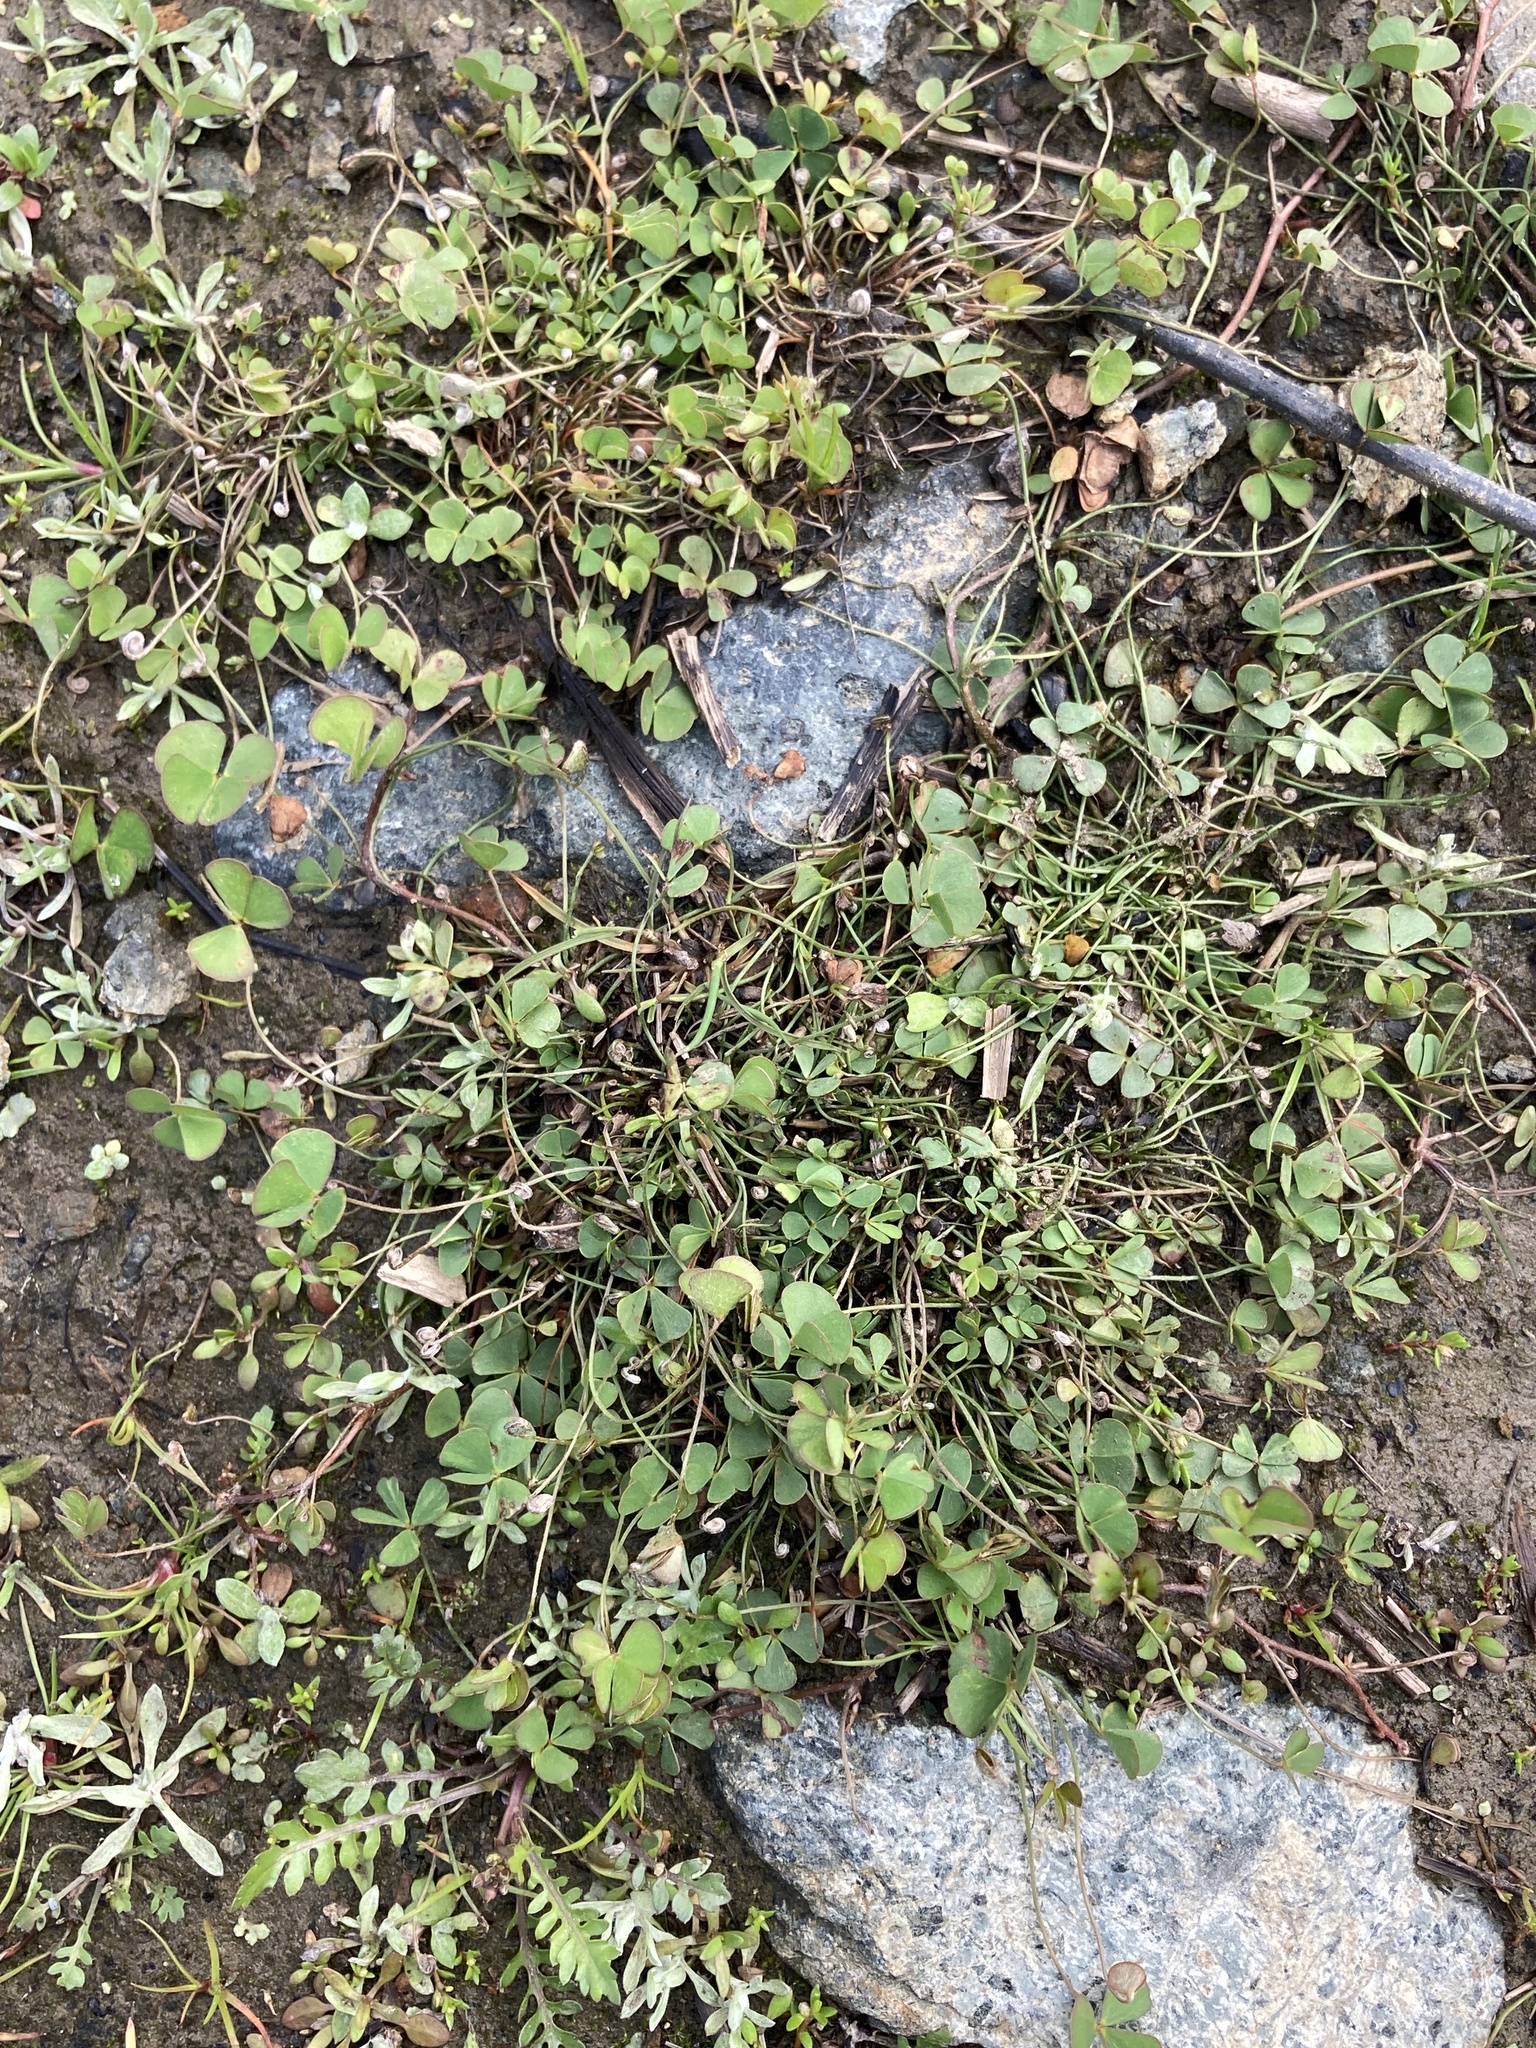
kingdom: Plantae
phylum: Tracheophyta
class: Polypodiopsida
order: Salviniales
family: Marsileaceae
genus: Marsilea
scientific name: Marsilea vestita
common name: Hooked-pepperwort
